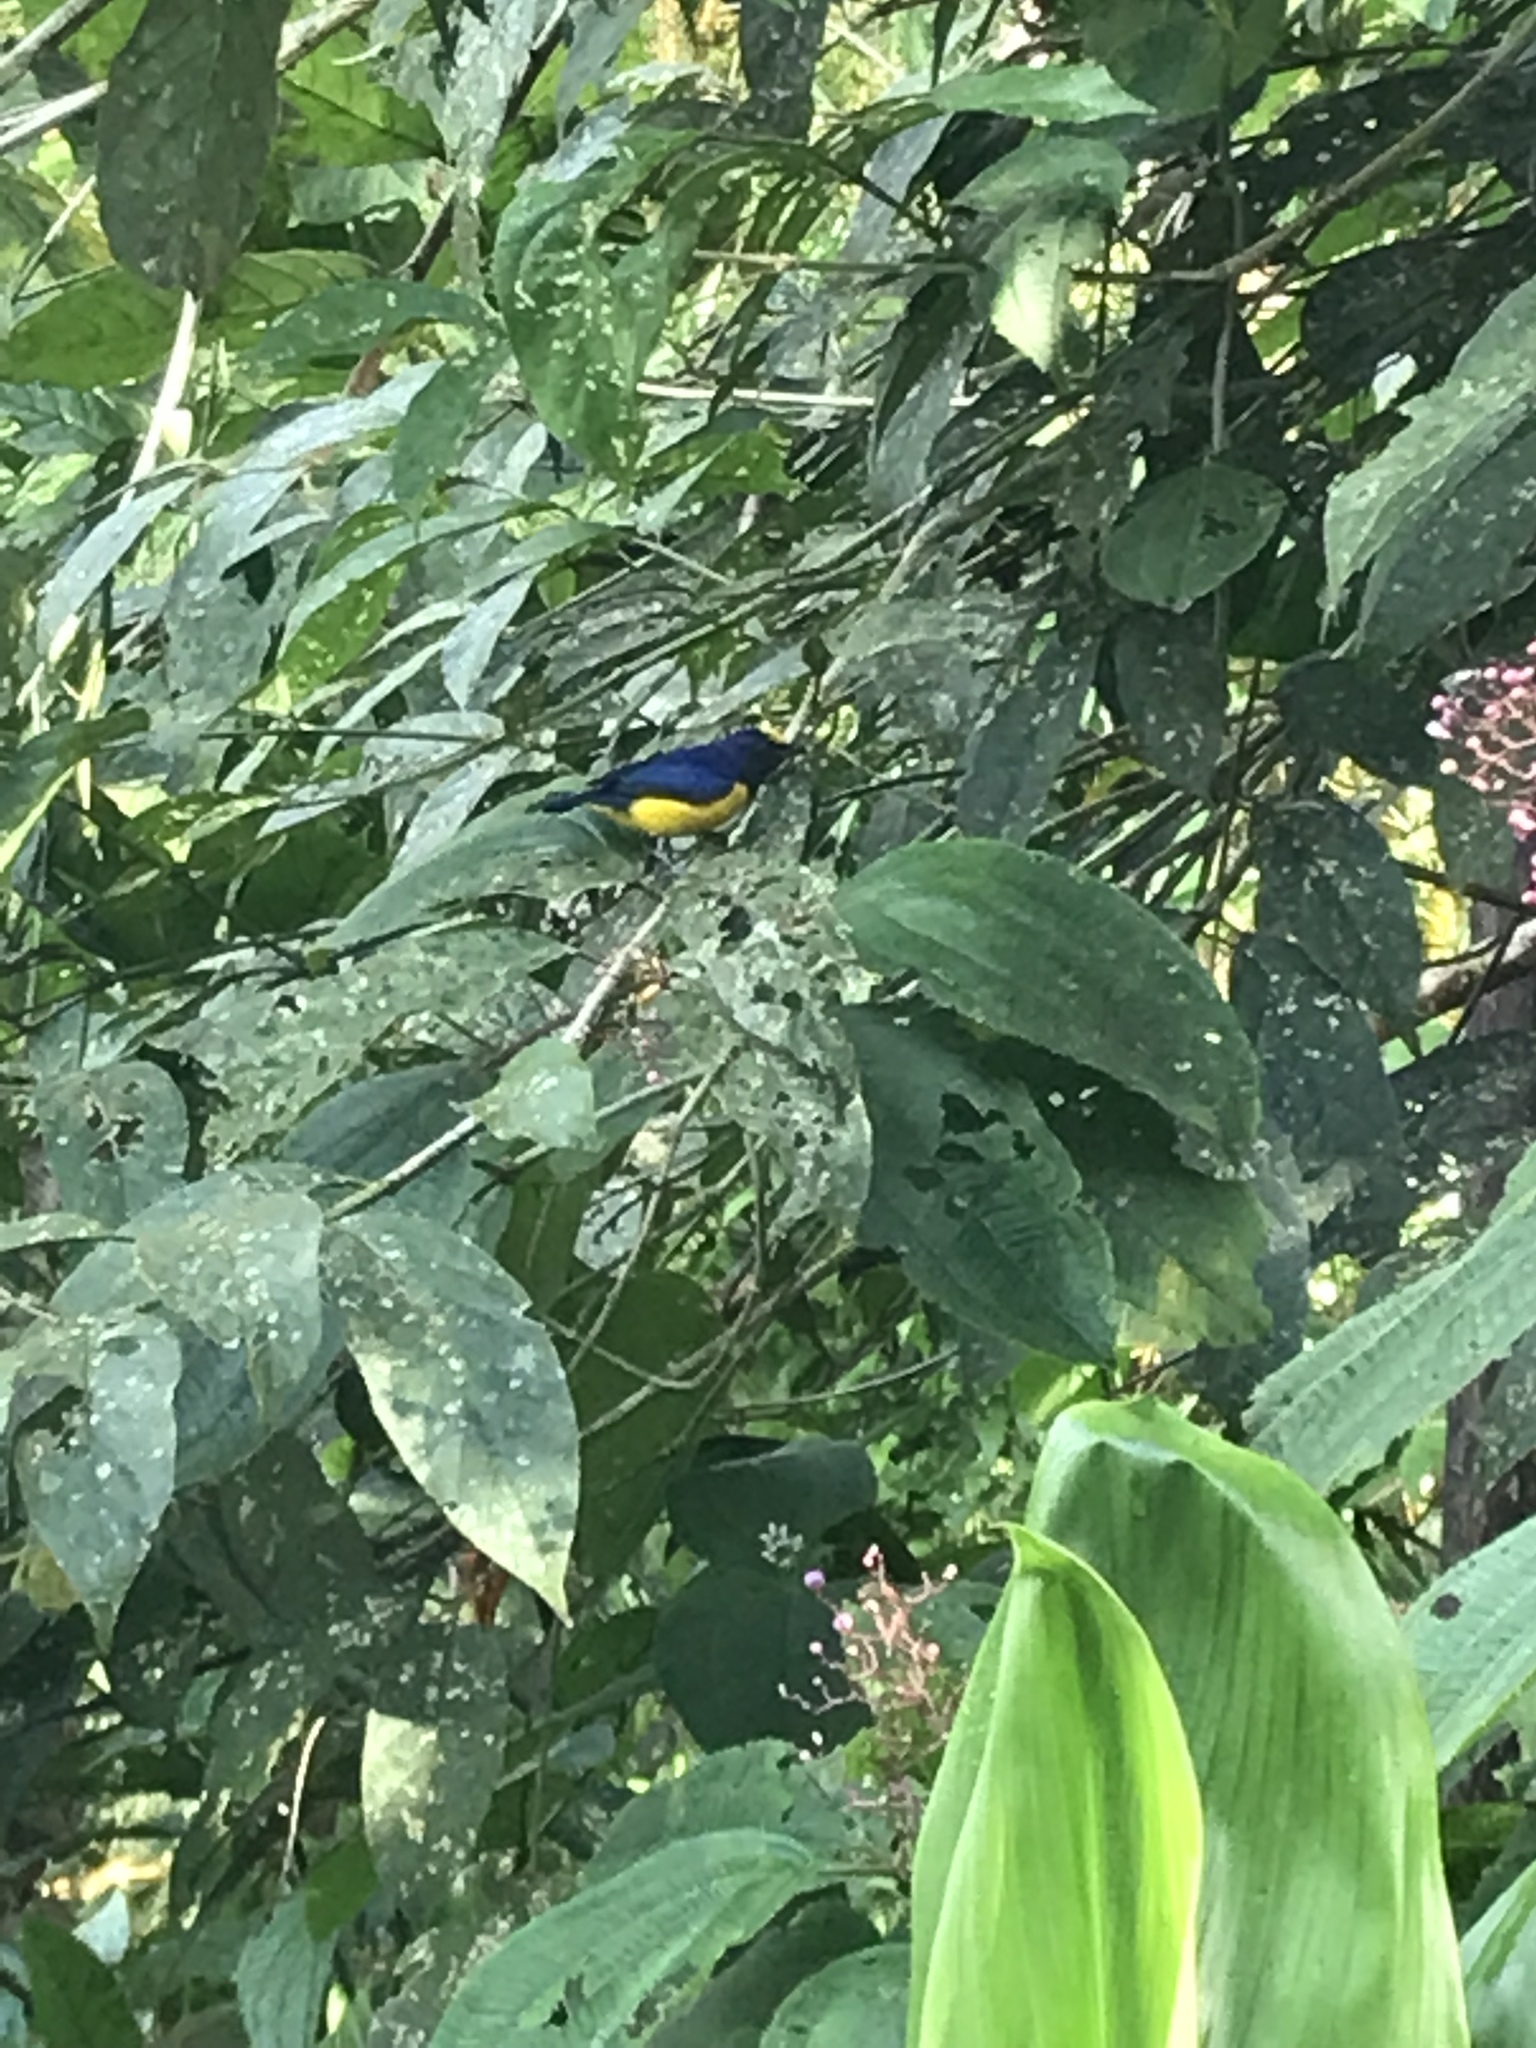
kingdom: Animalia
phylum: Chordata
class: Aves
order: Passeriformes
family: Fringillidae
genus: Euphonia
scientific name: Euphonia imitans
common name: Spot-crowned euphonia
